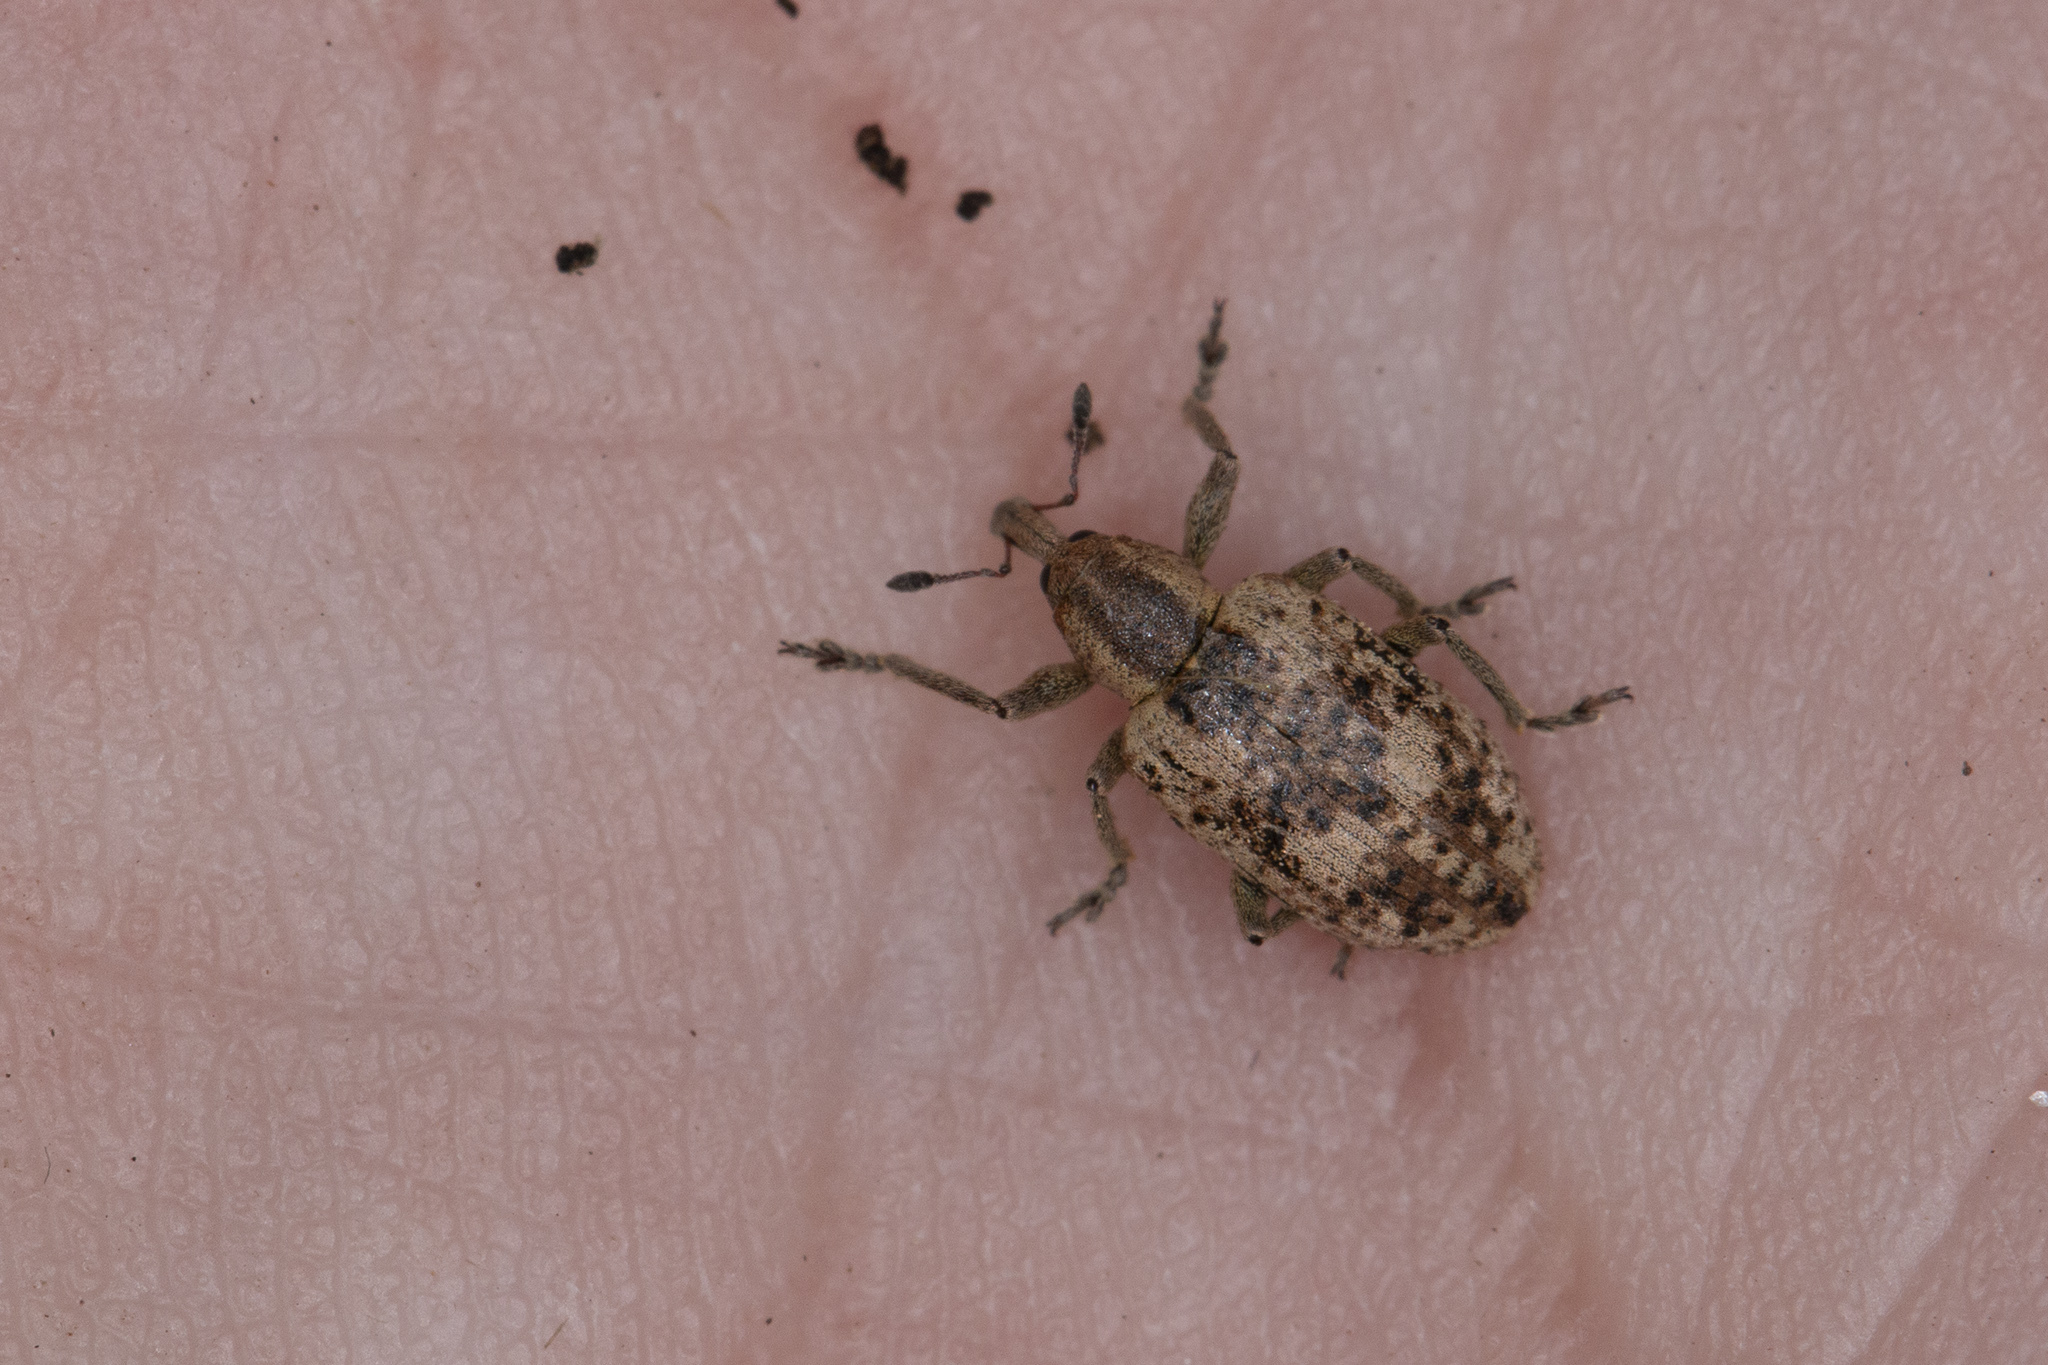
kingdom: Animalia
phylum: Arthropoda
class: Insecta
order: Coleoptera
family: Curculionidae
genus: Hypera
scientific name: Hypera rumicis
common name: Weevil
